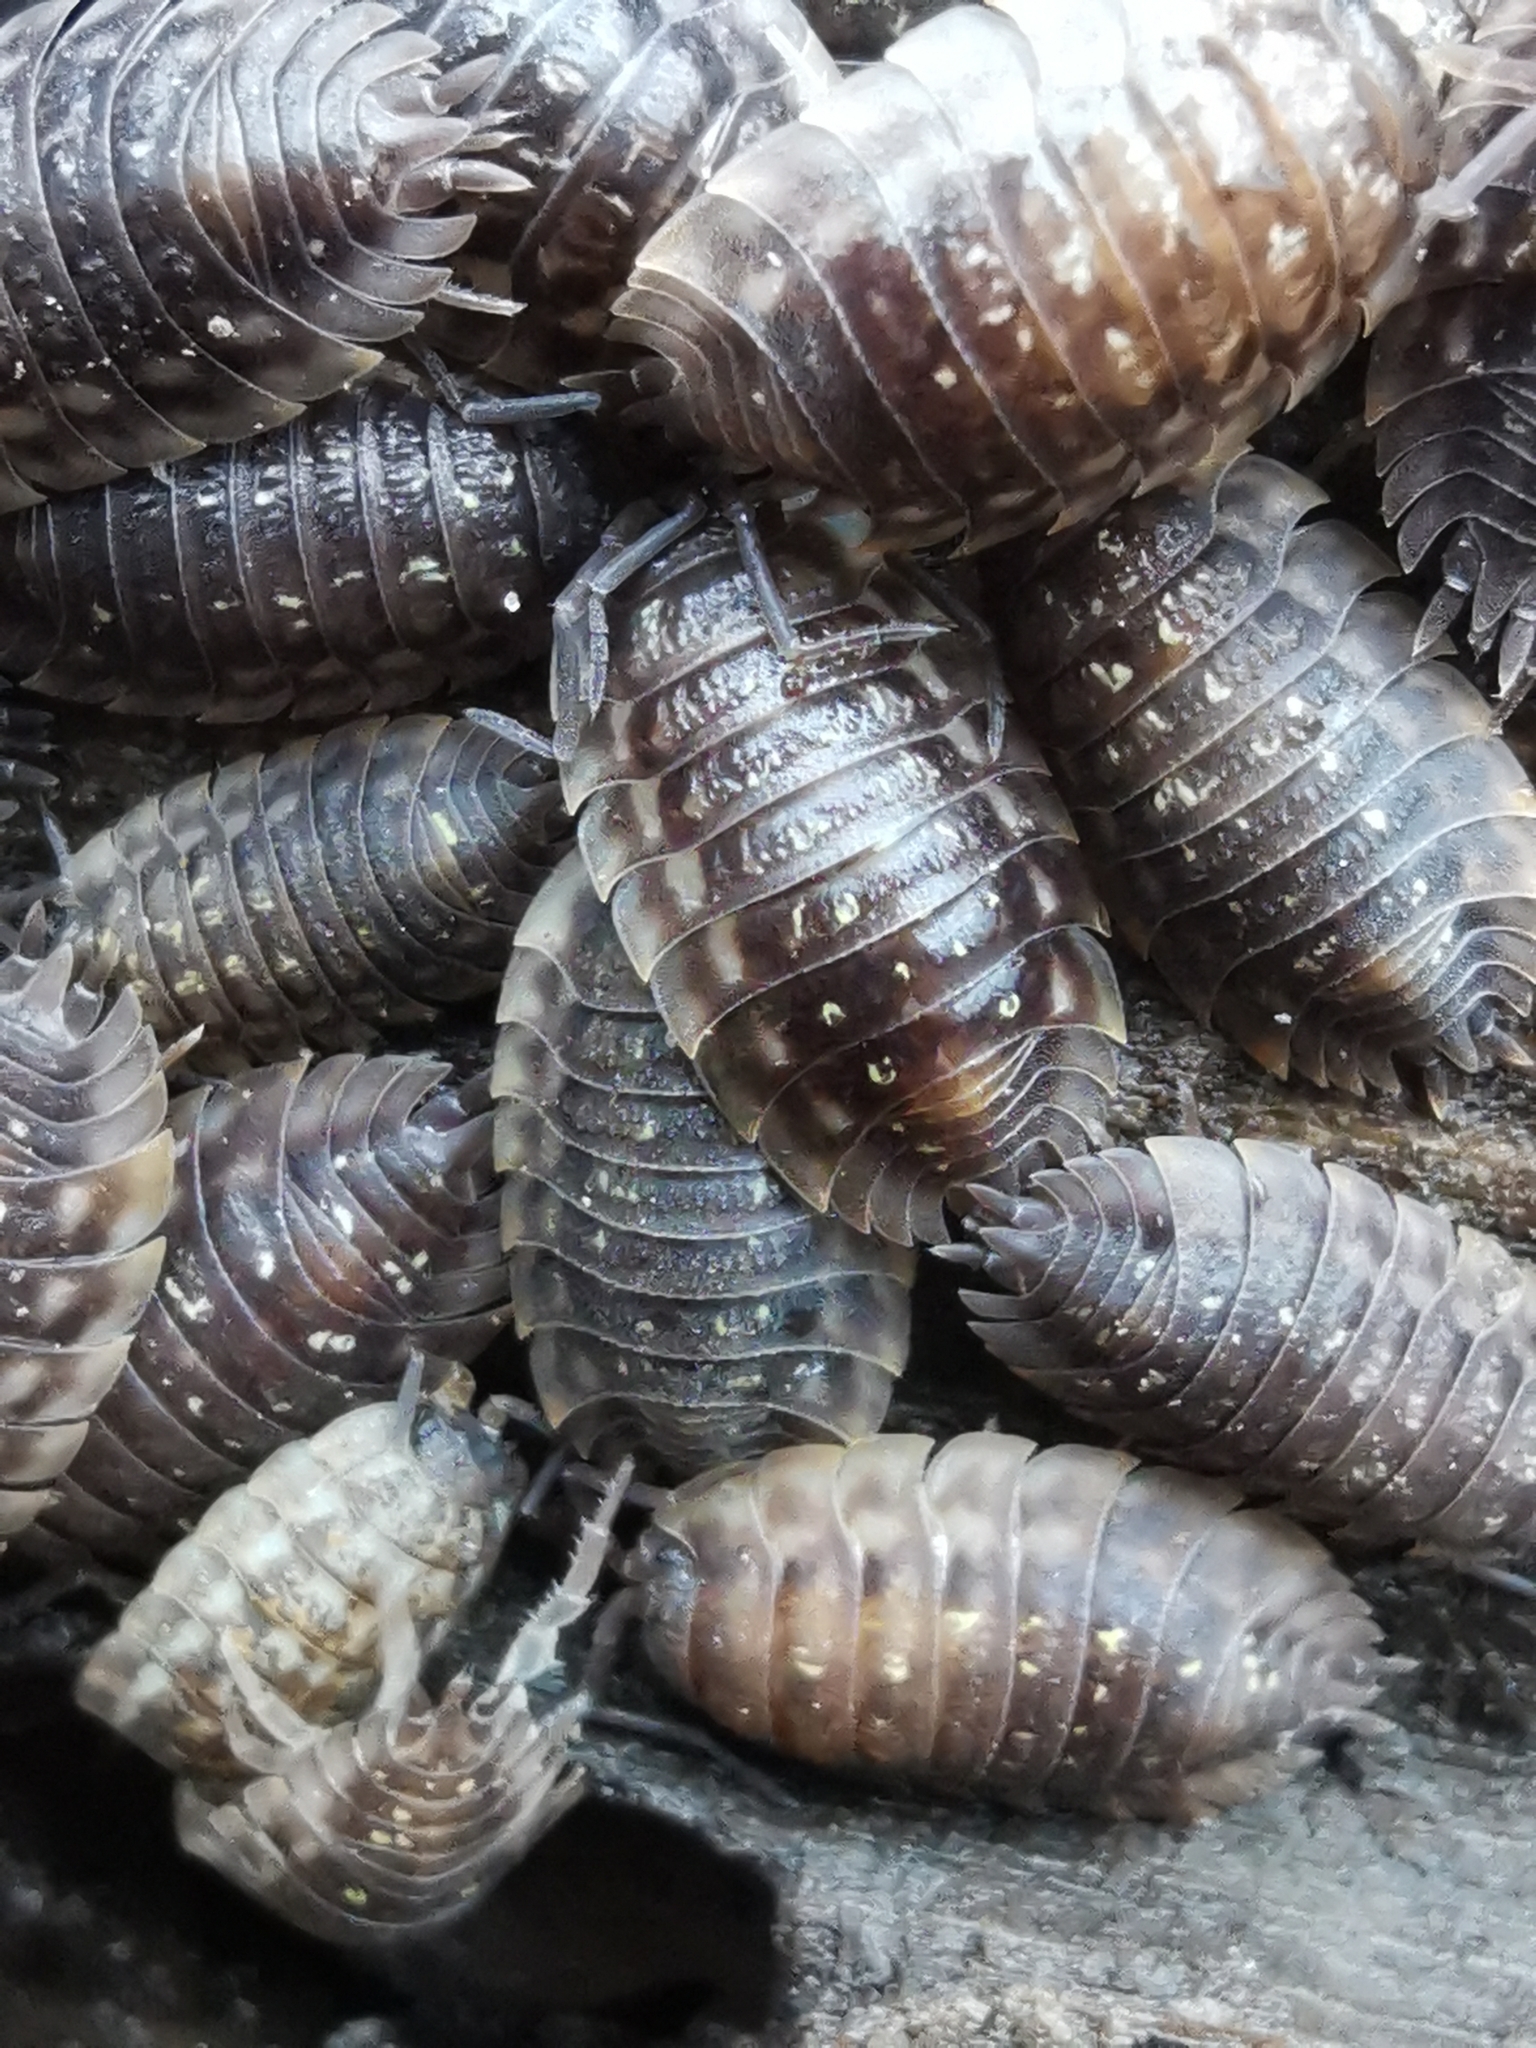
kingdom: Animalia
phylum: Arthropoda
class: Malacostraca
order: Isopoda
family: Oniscidae
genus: Oniscus
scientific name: Oniscus asellus
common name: Common shiny woodlouse
